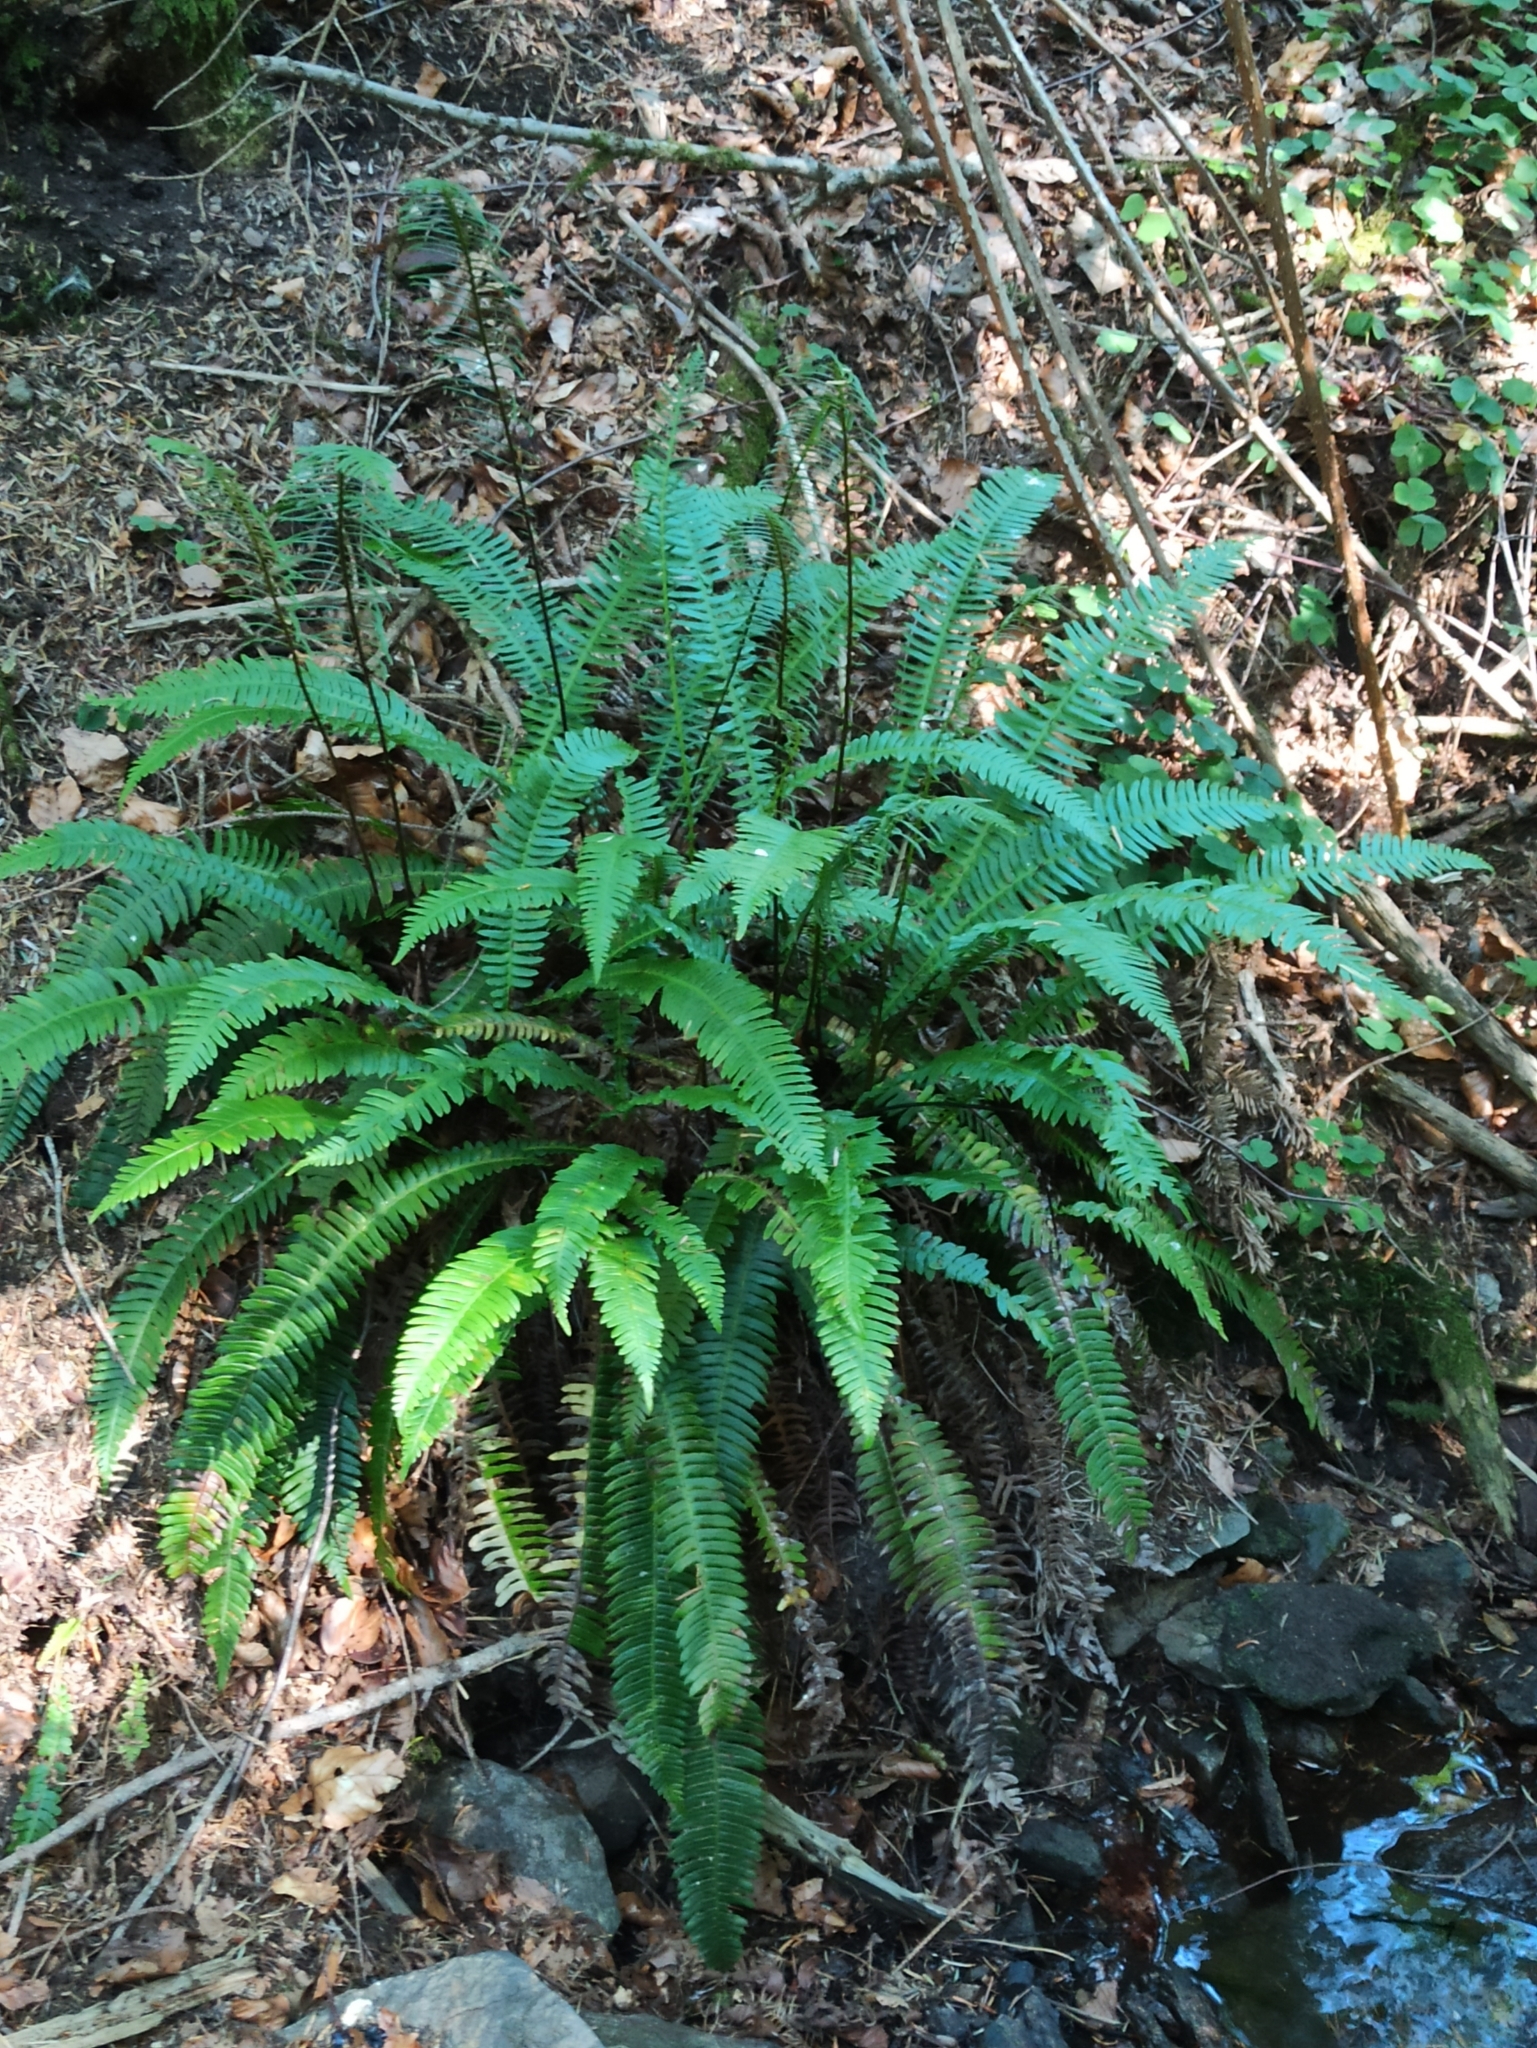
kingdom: Plantae
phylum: Tracheophyta
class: Polypodiopsida
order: Polypodiales
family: Blechnaceae
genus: Struthiopteris
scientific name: Struthiopteris spicant
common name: Deer fern
